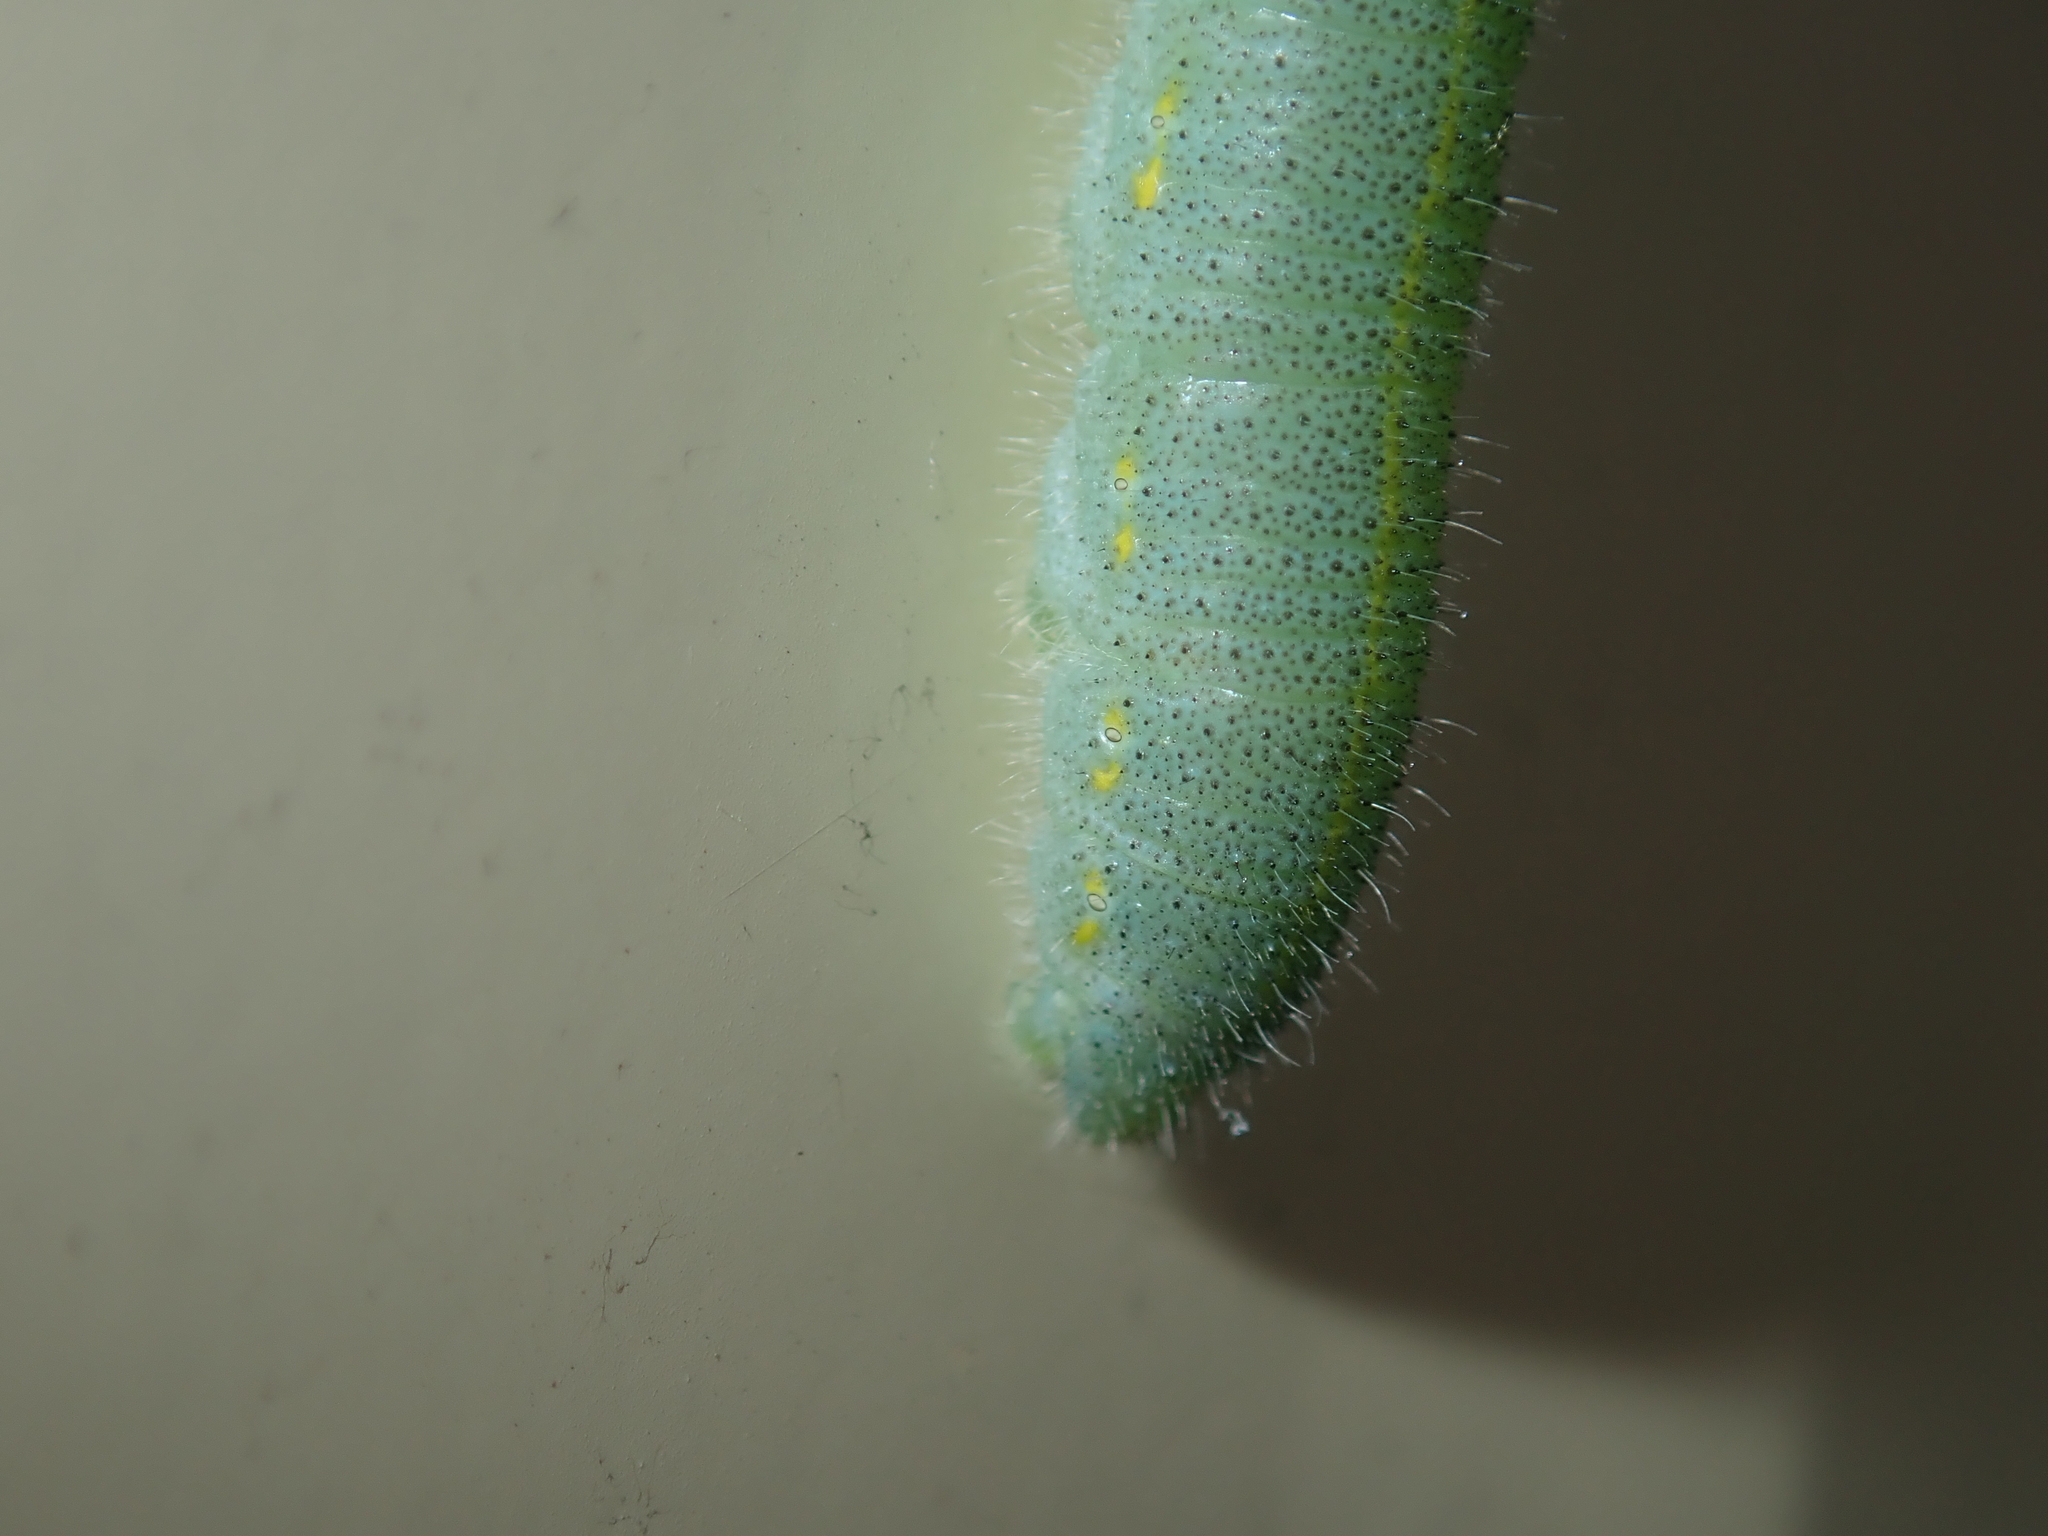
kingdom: Animalia
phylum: Arthropoda
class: Insecta
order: Lepidoptera
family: Pieridae
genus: Pieris
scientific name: Pieris rapae
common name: Small white
